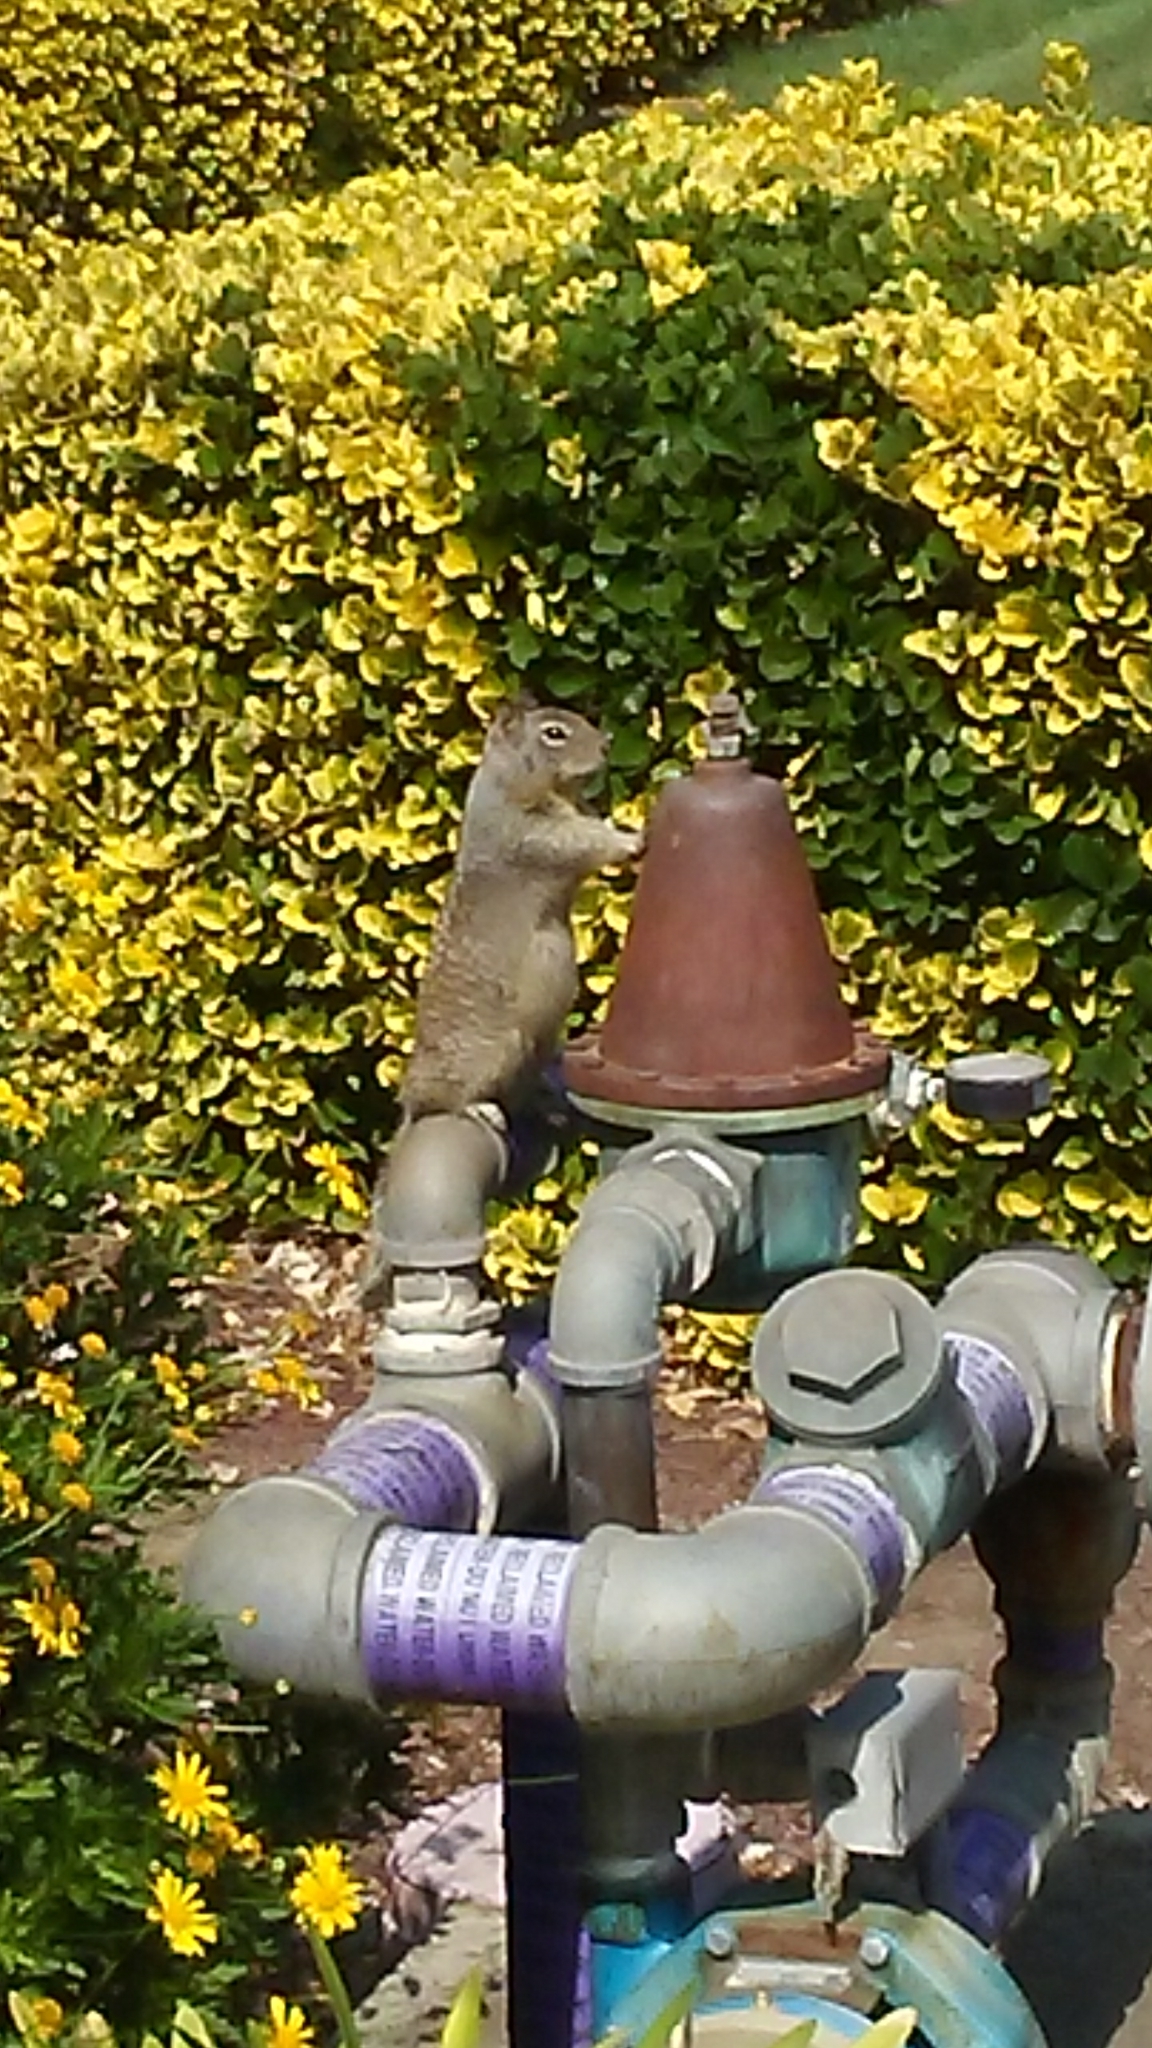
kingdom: Animalia
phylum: Chordata
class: Mammalia
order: Rodentia
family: Sciuridae
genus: Otospermophilus
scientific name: Otospermophilus beecheyi
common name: California ground squirrel
